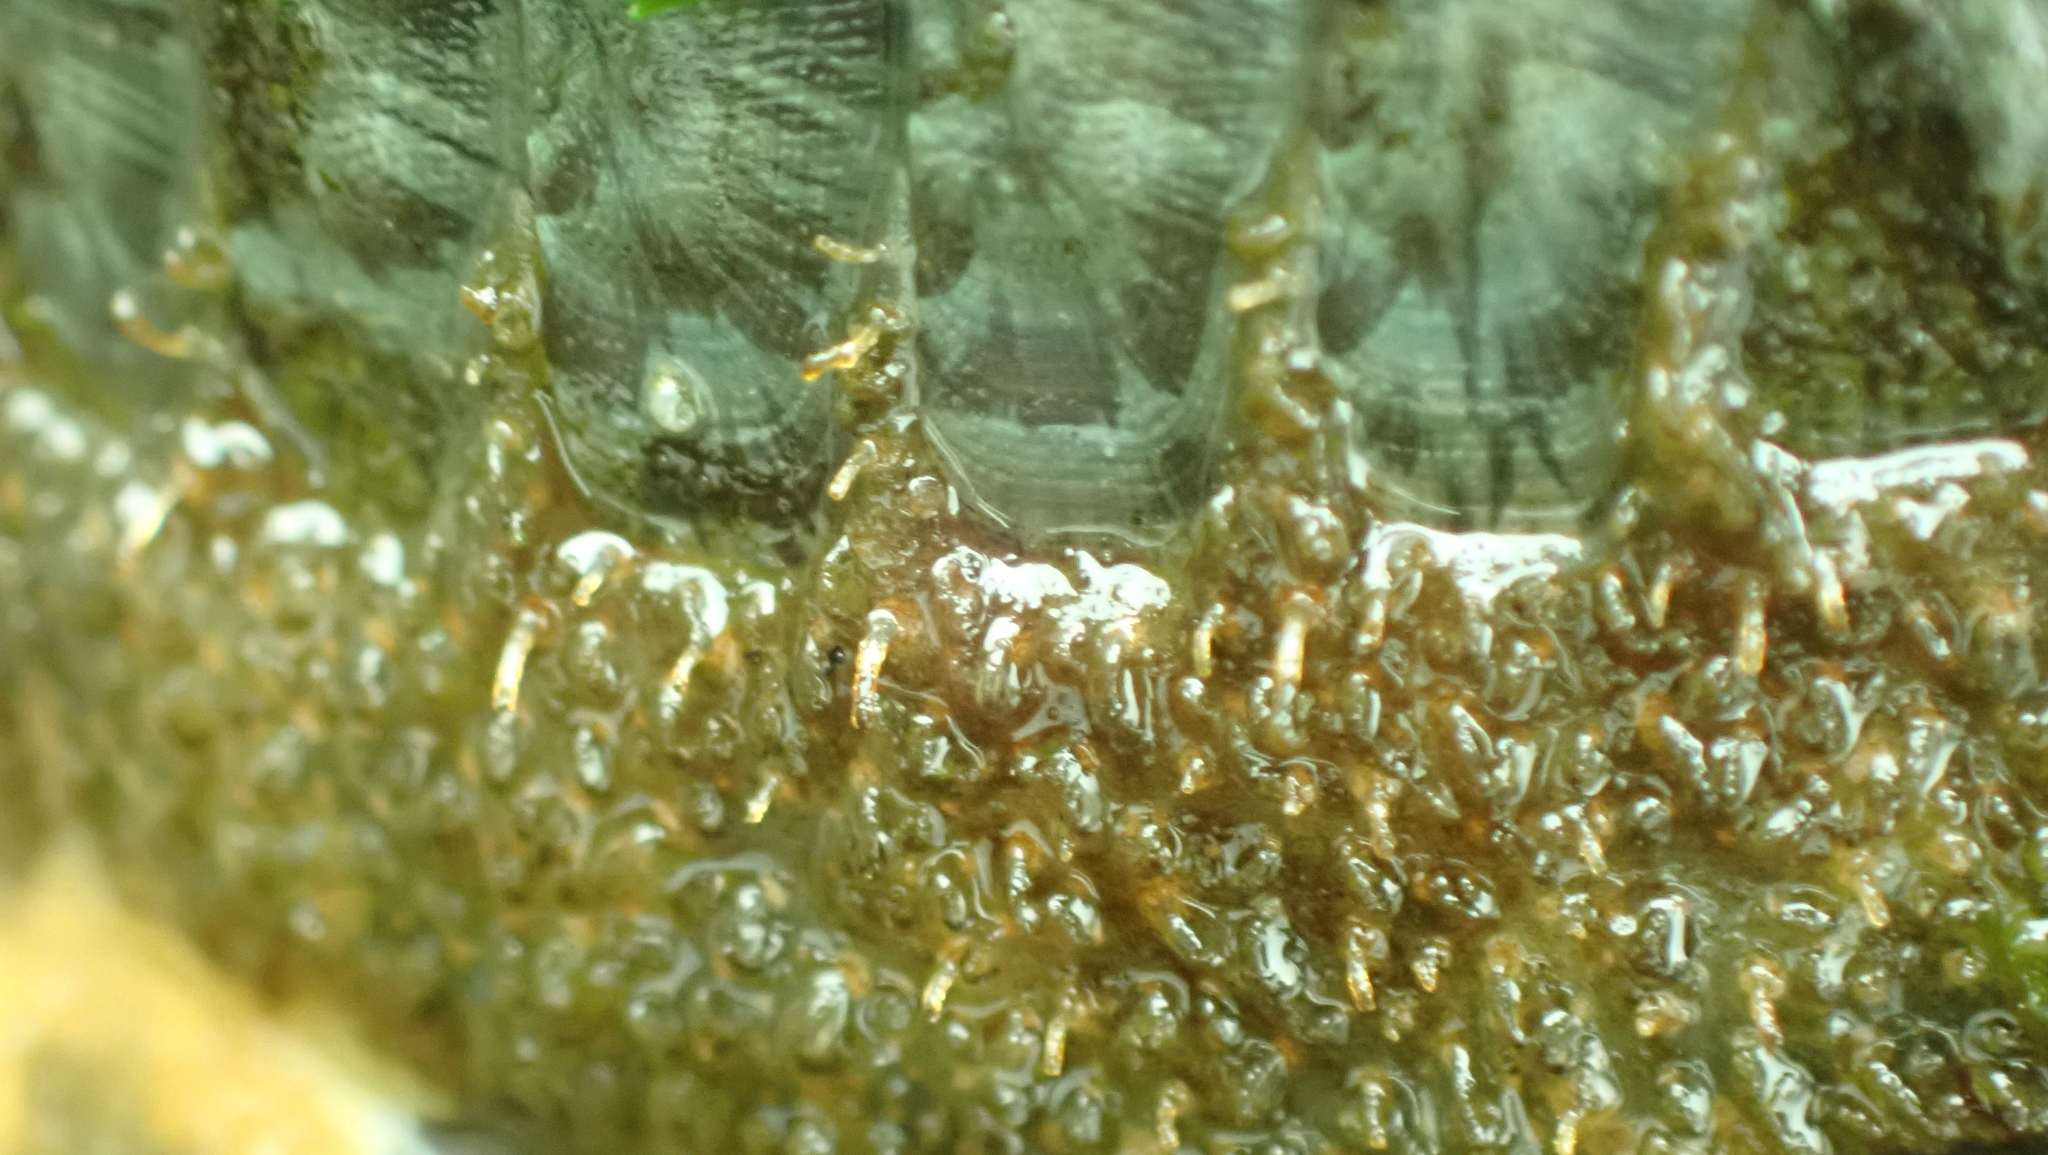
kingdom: Animalia
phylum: Mollusca
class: Polyplacophora
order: Chitonida
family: Mopaliidae
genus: Mopalia
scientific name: Mopalia lignosa
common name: Woody chiton
